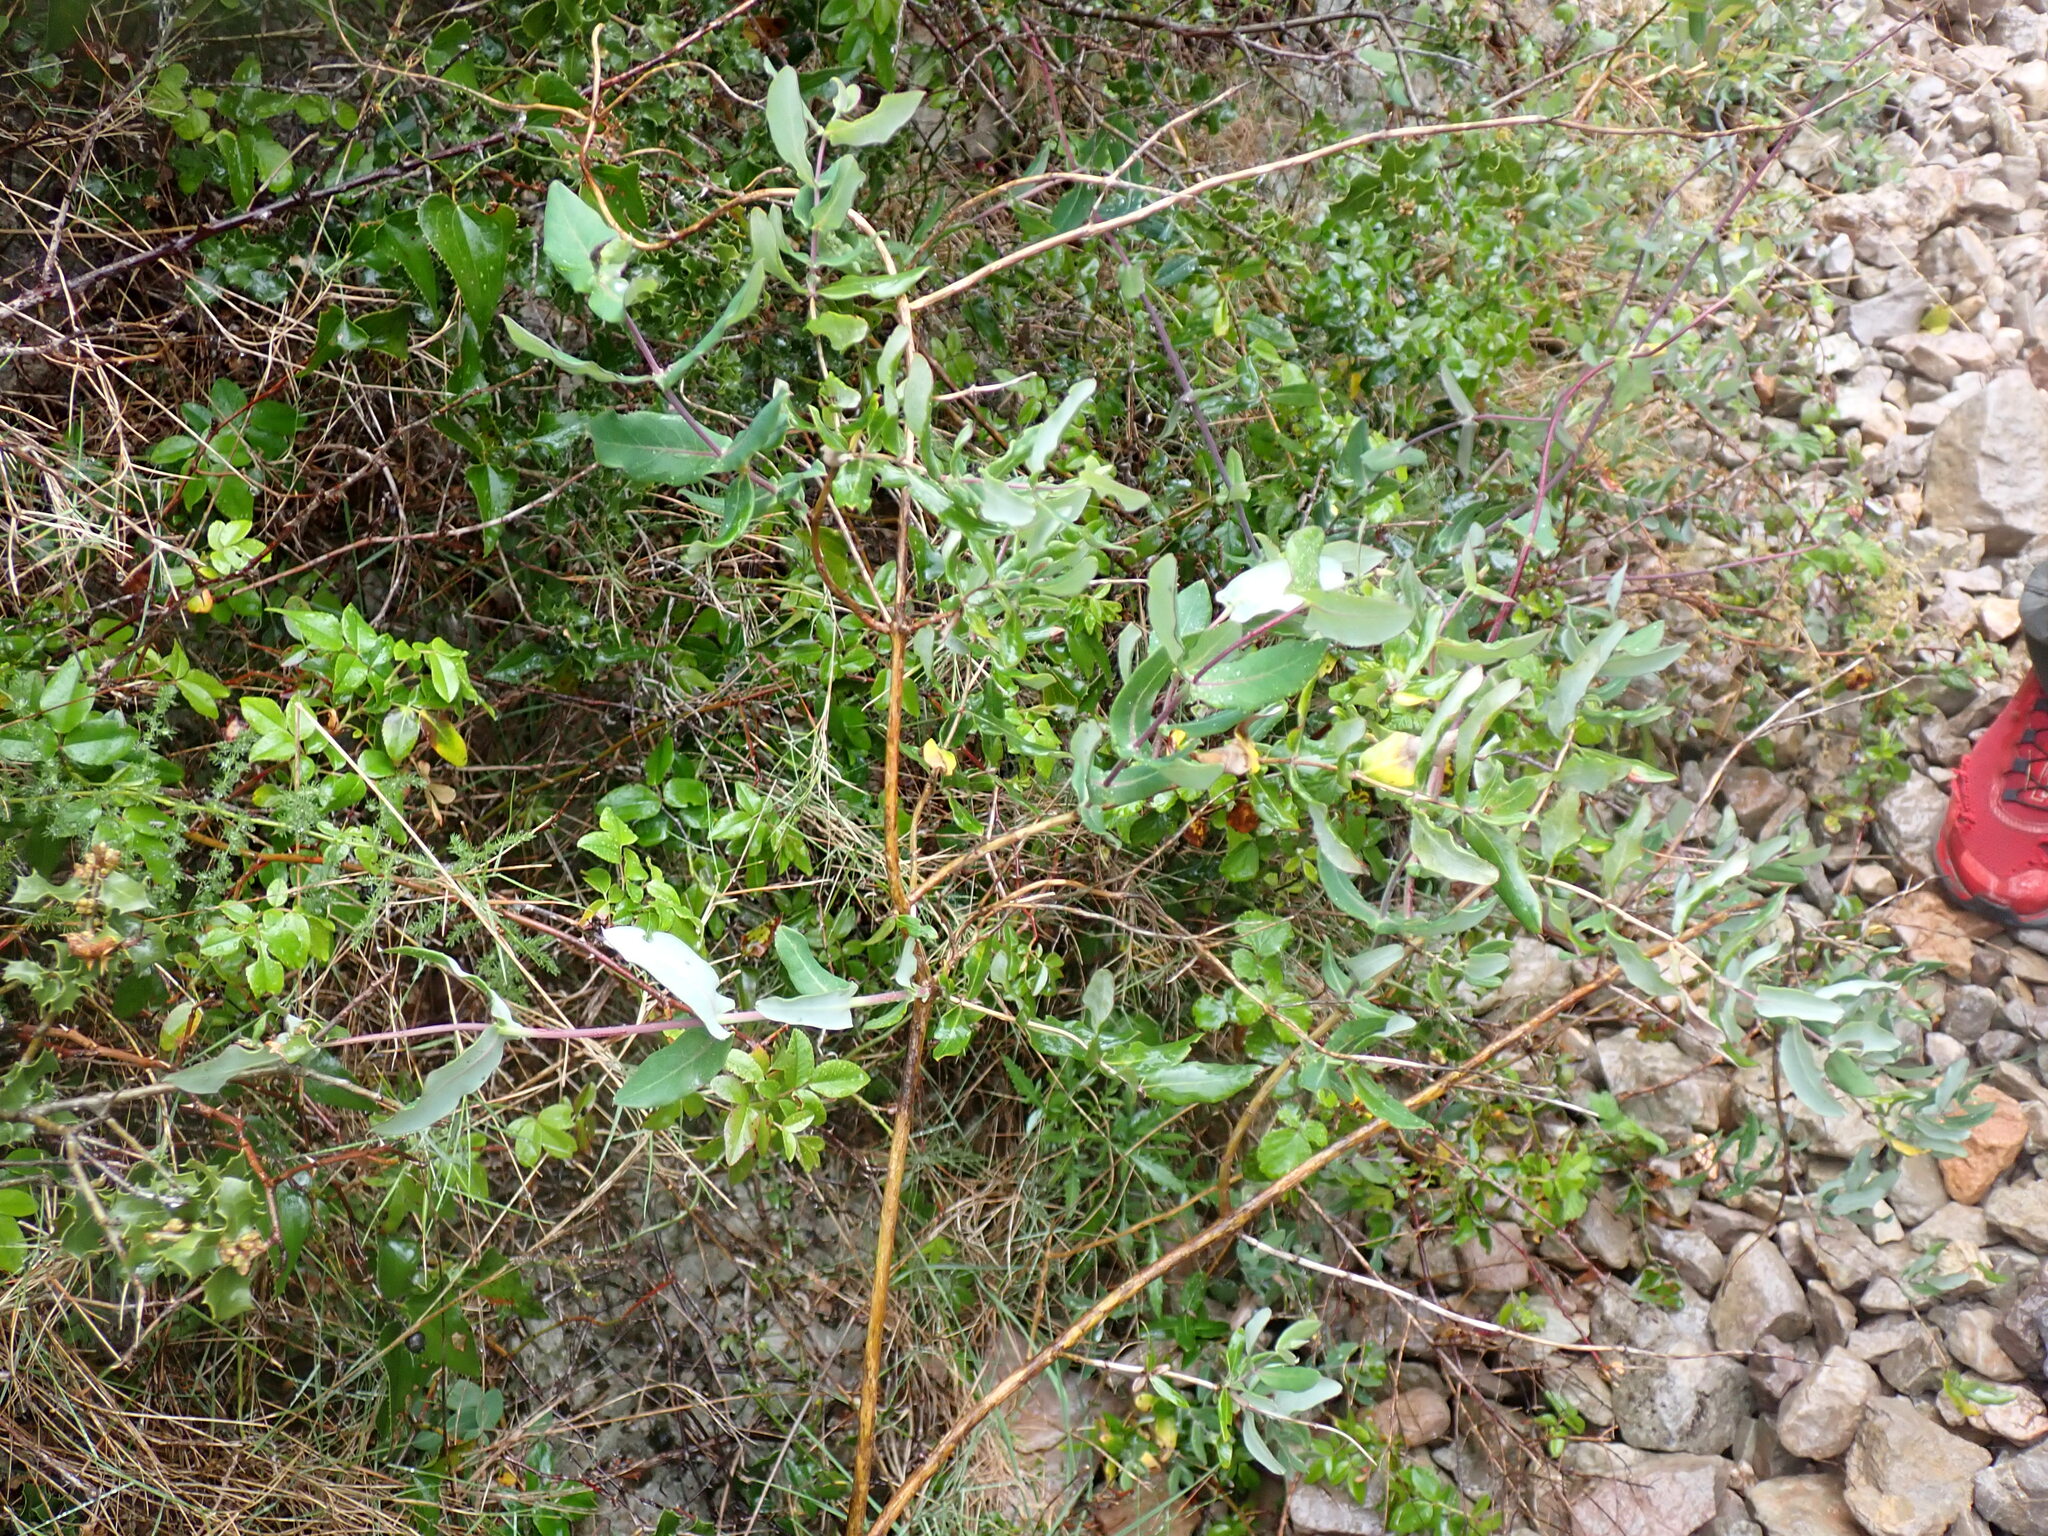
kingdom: Plantae
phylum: Tracheophyta
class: Magnoliopsida
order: Dipsacales
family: Caprifoliaceae
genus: Lonicera
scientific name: Lonicera implexa
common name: Minorca honeysuckle
